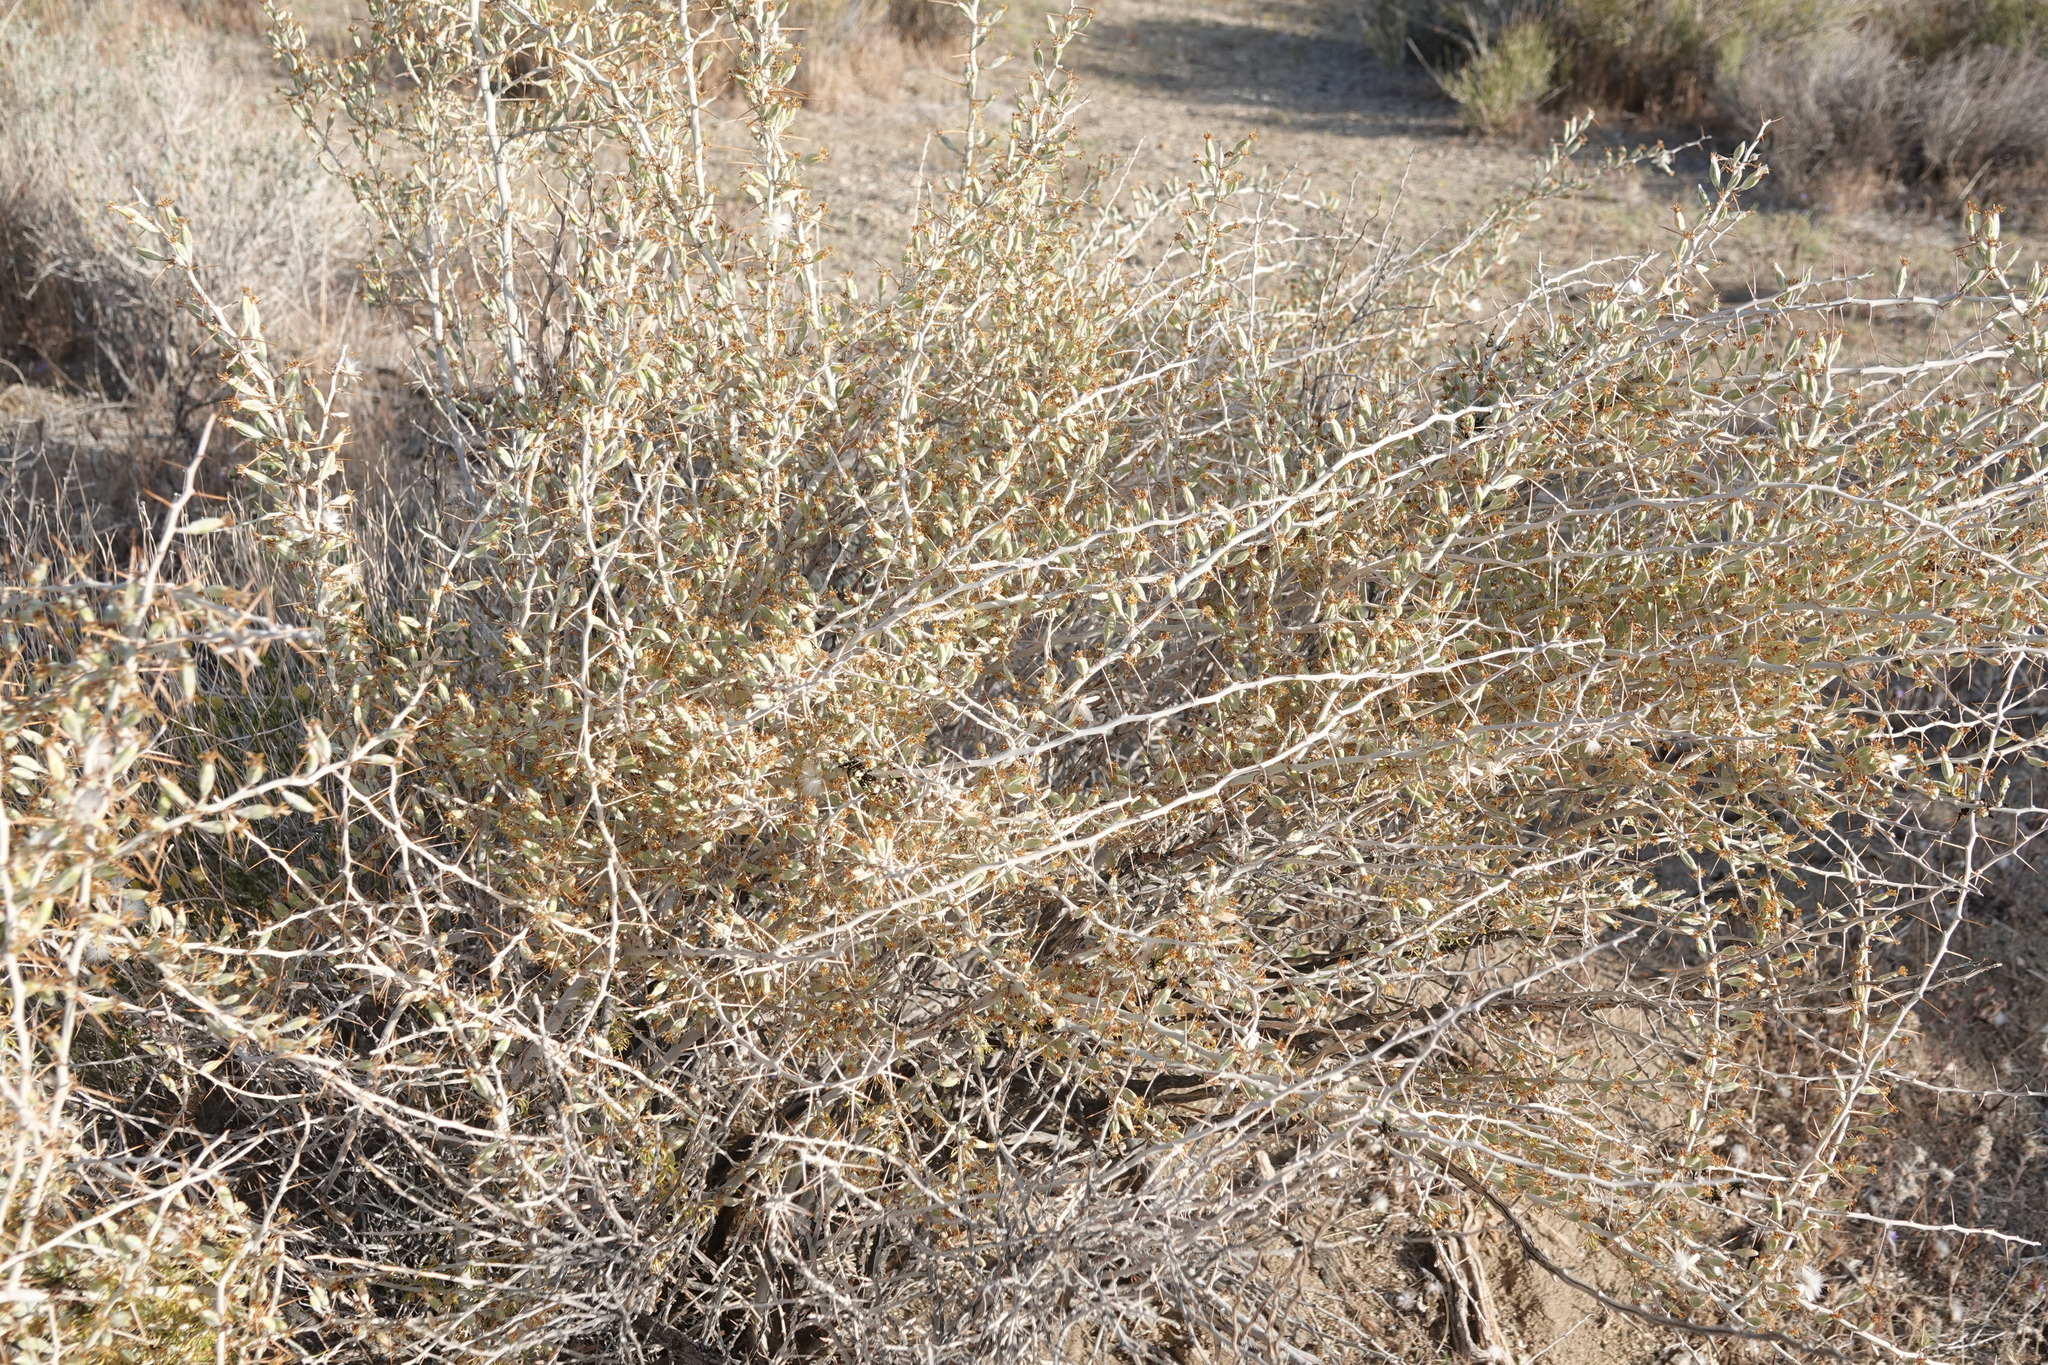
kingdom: Plantae
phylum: Tracheophyta
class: Magnoliopsida
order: Asterales
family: Asteraceae
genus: Tetradymia
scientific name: Tetradymia axillaris
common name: Long-spine horsebrush
